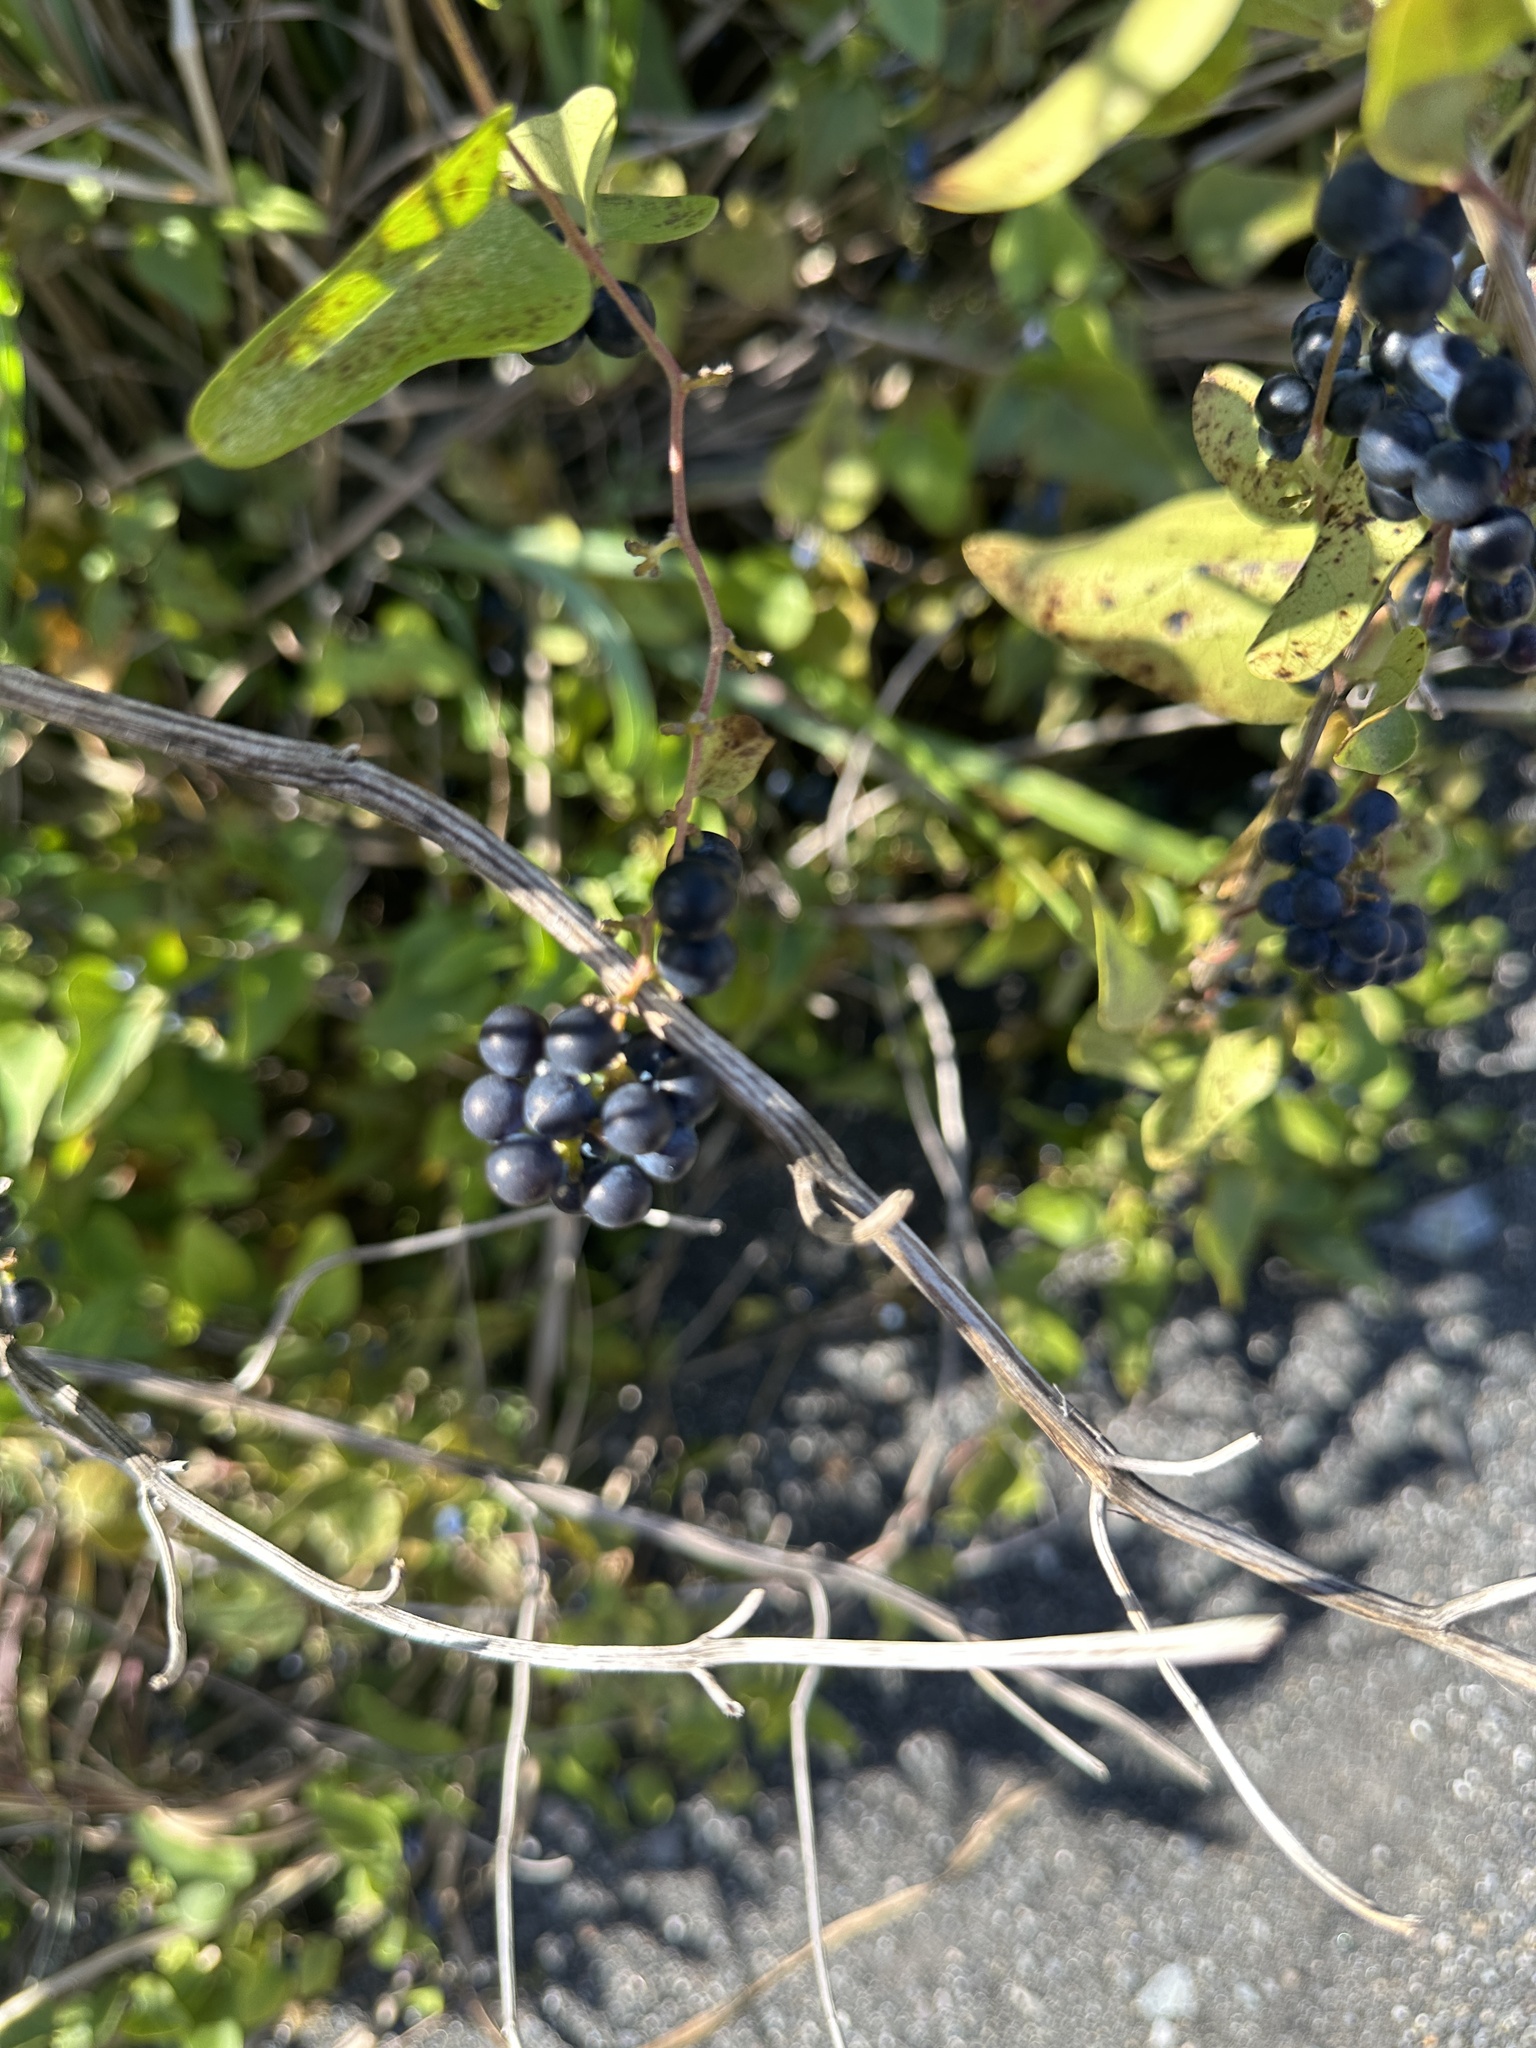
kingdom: Plantae
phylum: Tracheophyta
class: Magnoliopsida
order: Ranunculales
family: Menispermaceae
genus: Cocculus
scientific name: Cocculus orbiculatus
